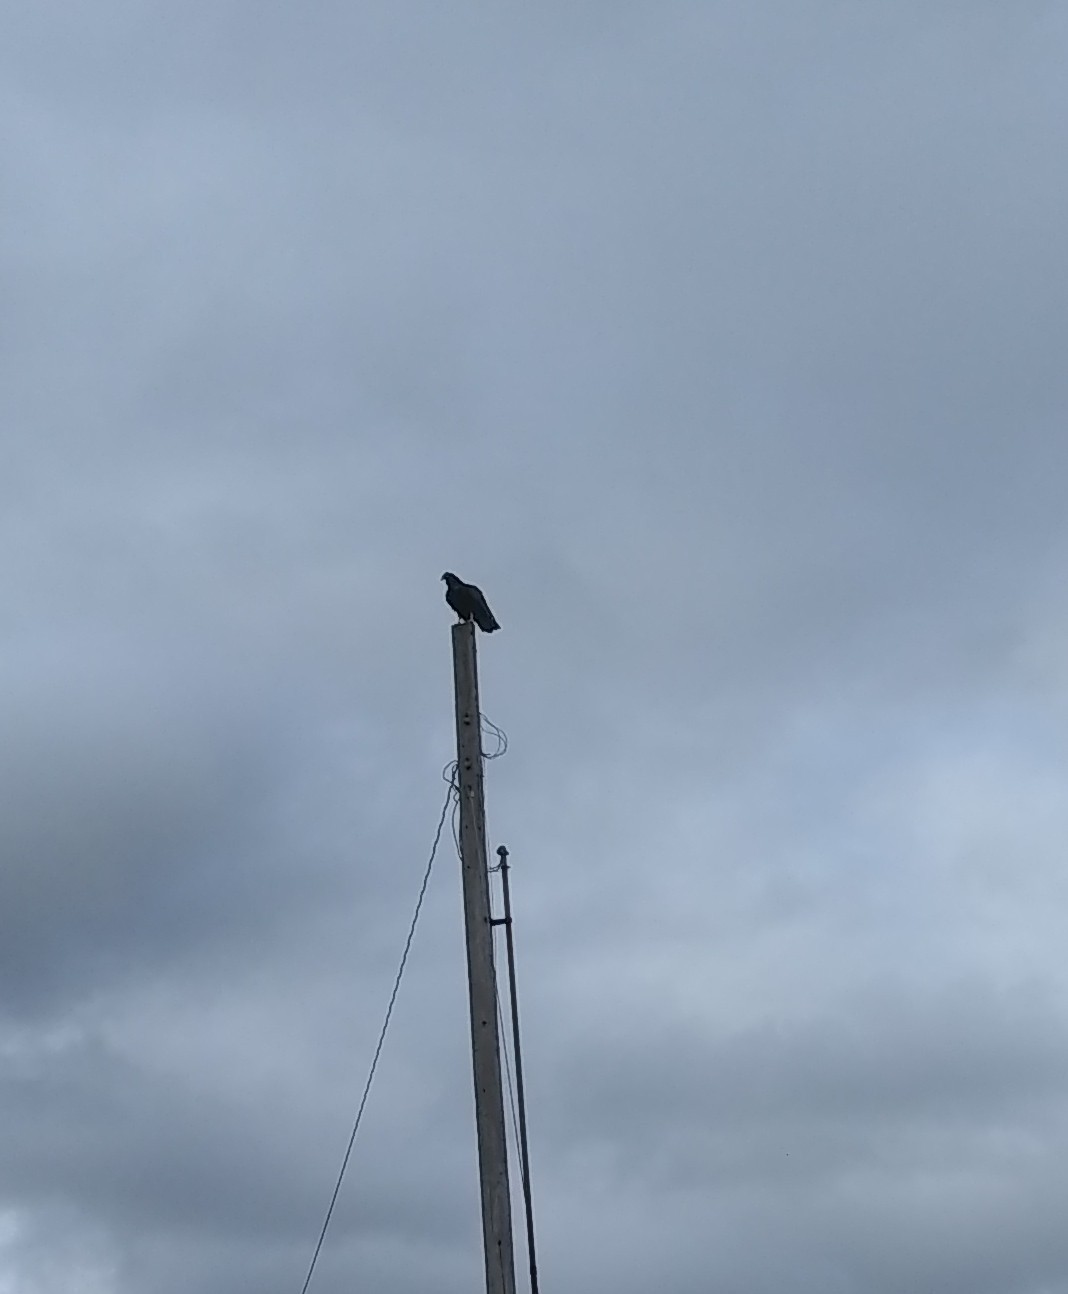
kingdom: Animalia
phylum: Chordata
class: Aves
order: Accipitriformes
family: Cathartidae
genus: Cathartes
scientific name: Cathartes aura
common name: Turkey vulture
